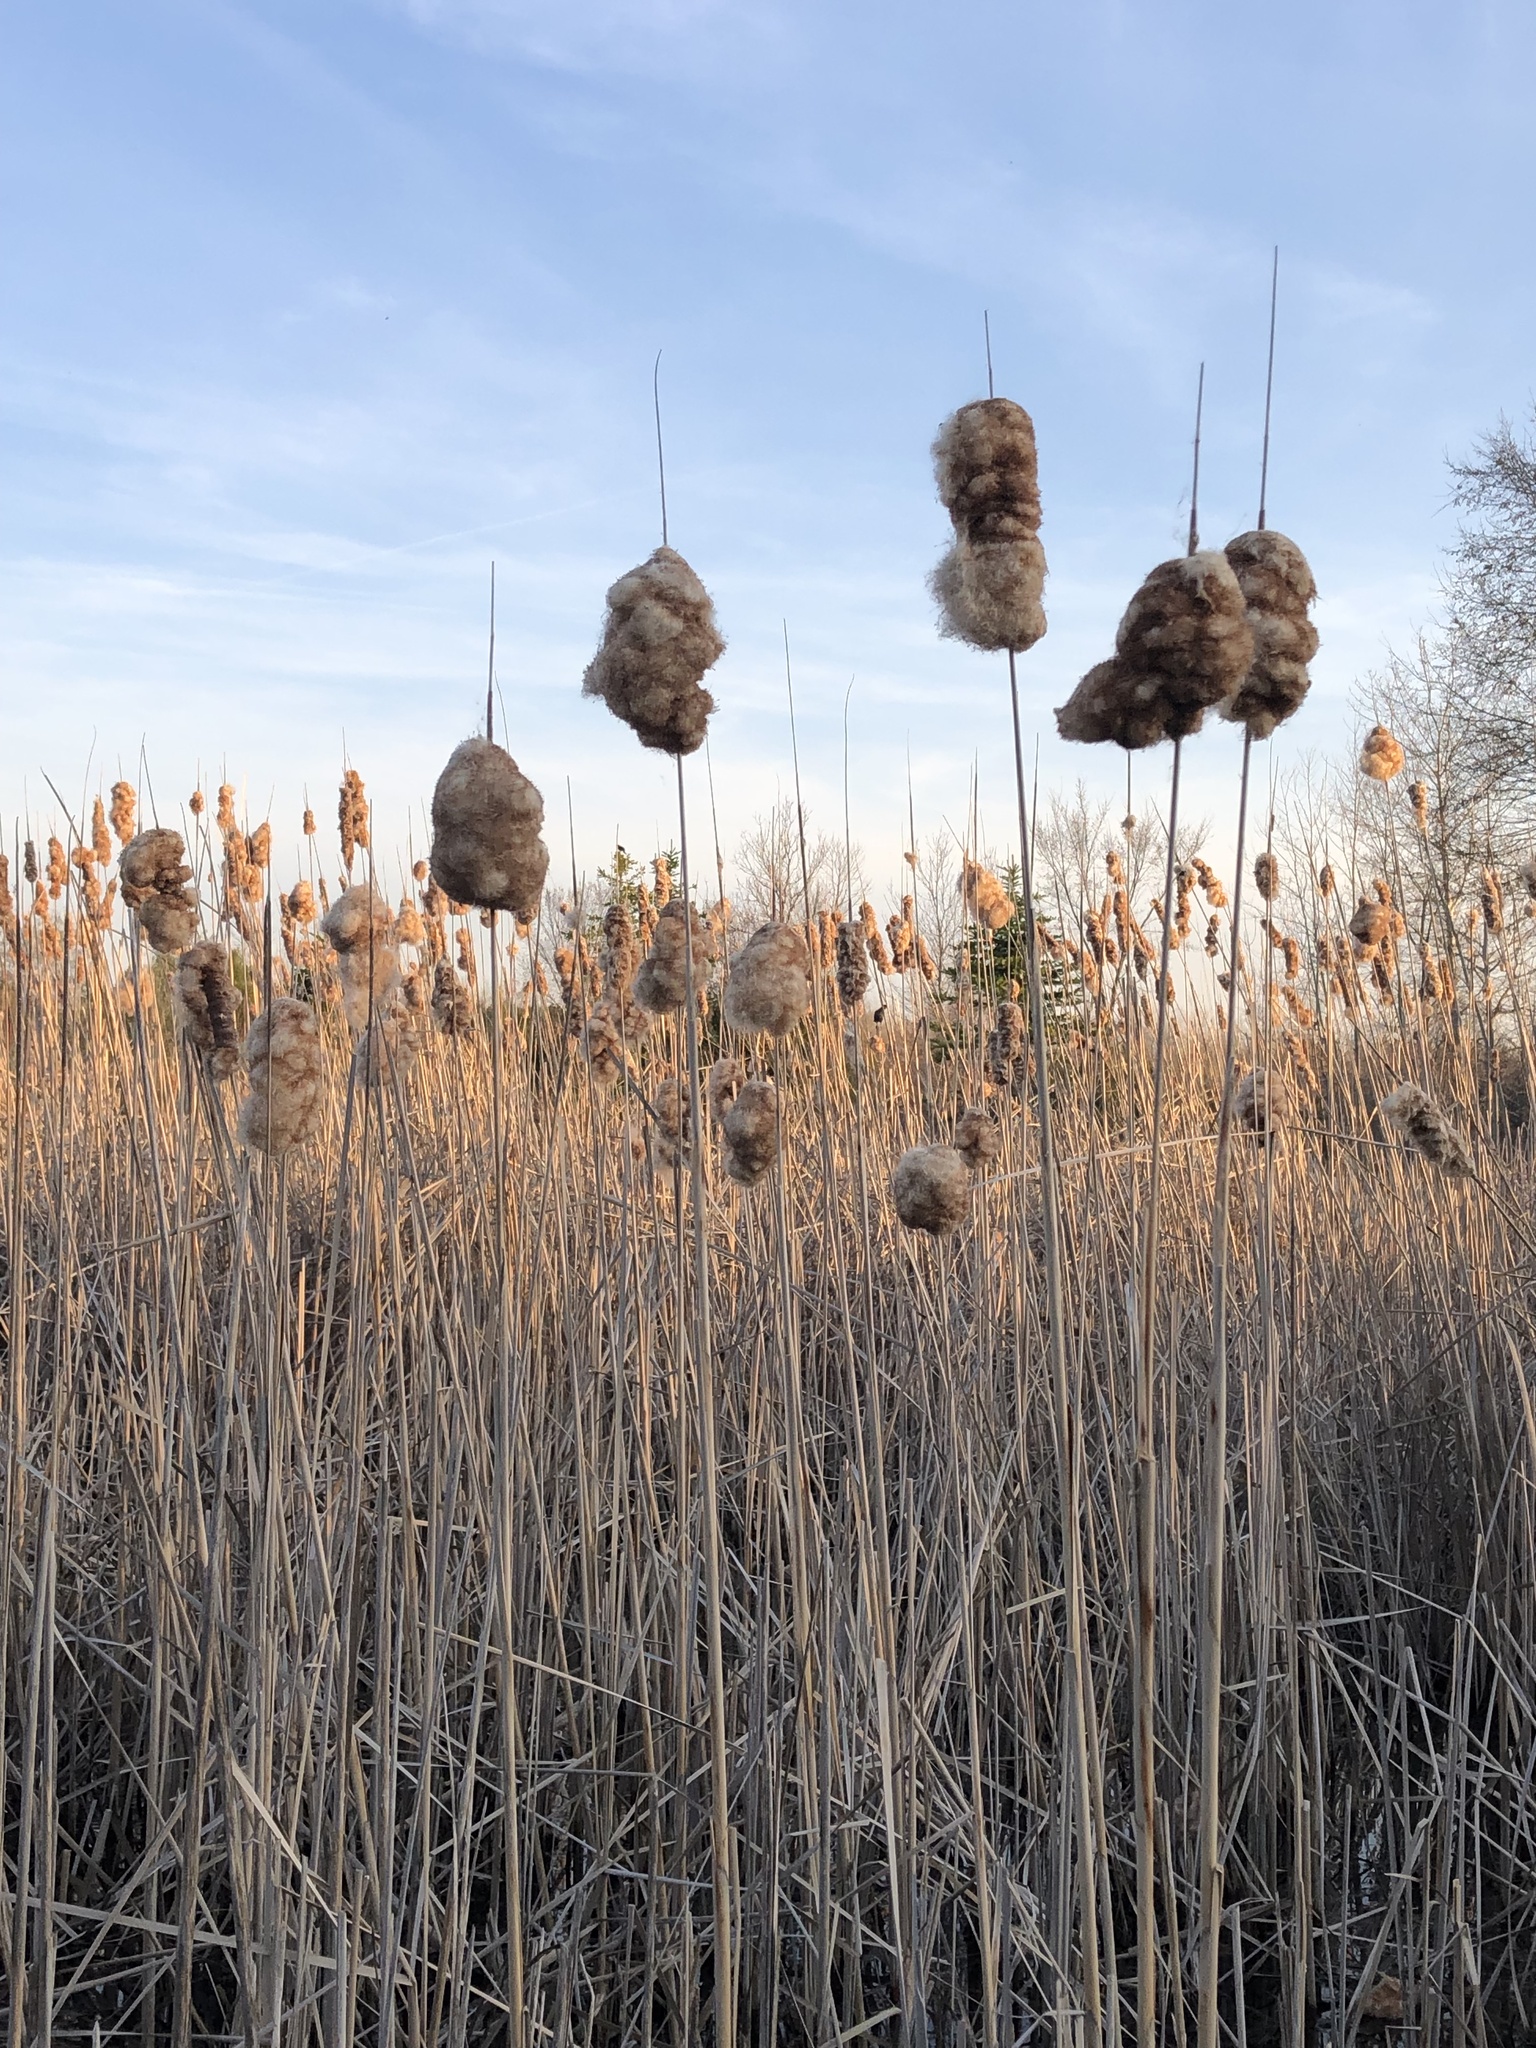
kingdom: Plantae
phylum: Tracheophyta
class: Liliopsida
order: Poales
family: Typhaceae
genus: Typha
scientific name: Typha latifolia
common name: Broadleaf cattail
